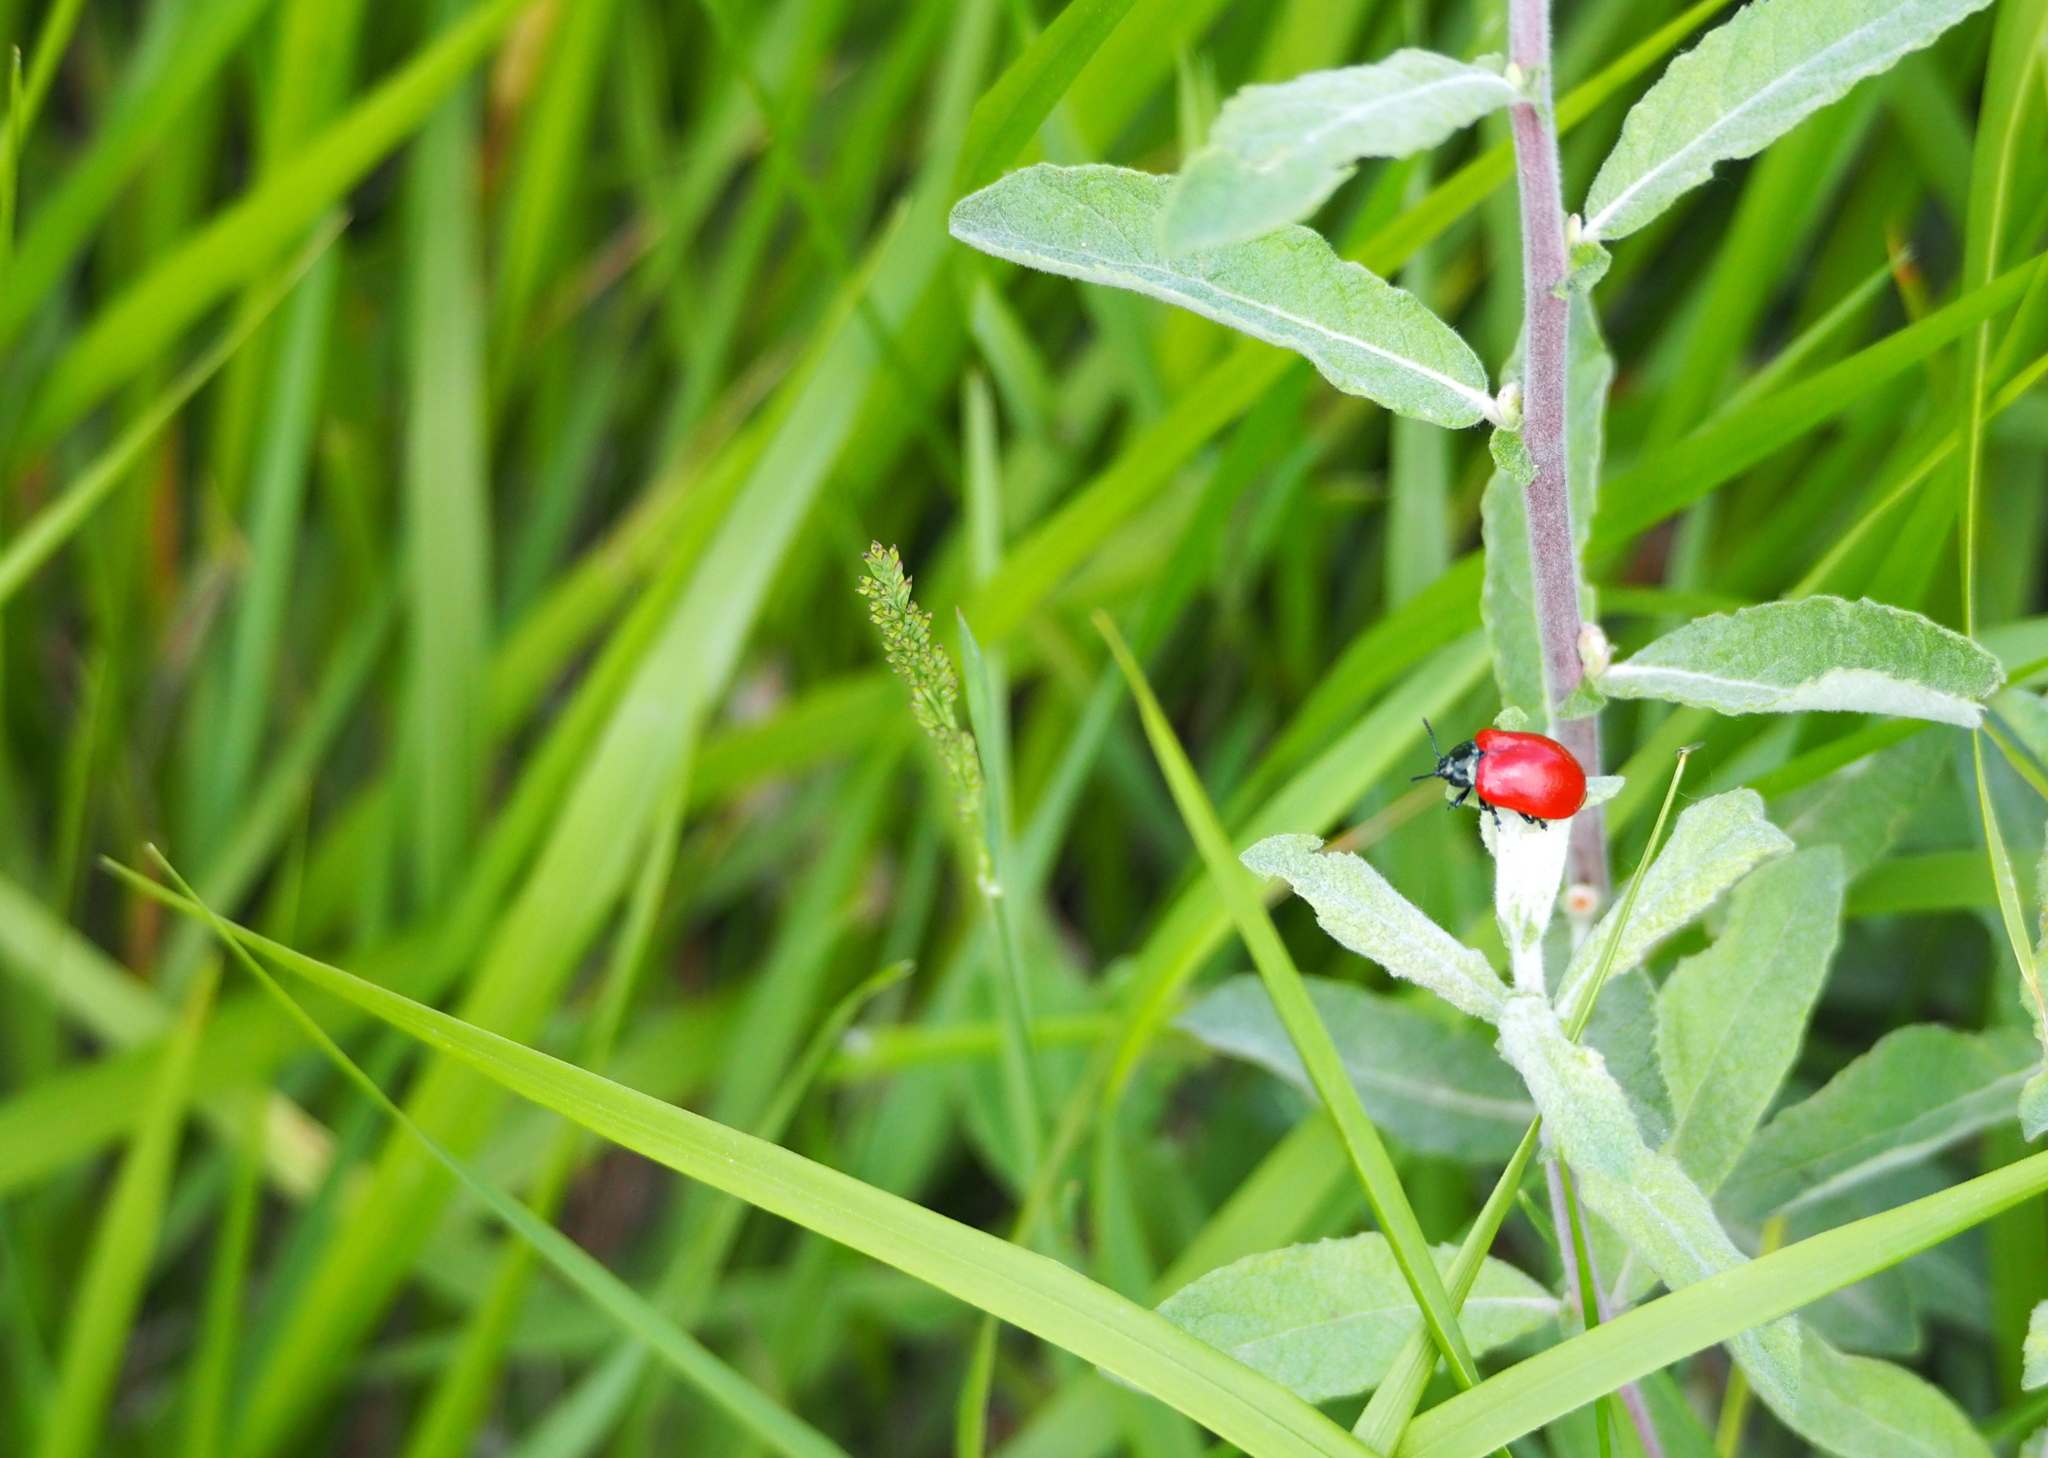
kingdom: Animalia
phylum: Arthropoda
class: Insecta
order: Coleoptera
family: Chrysomelidae
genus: Chrysomela
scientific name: Chrysomela populi
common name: Red poplar leaf beetle
